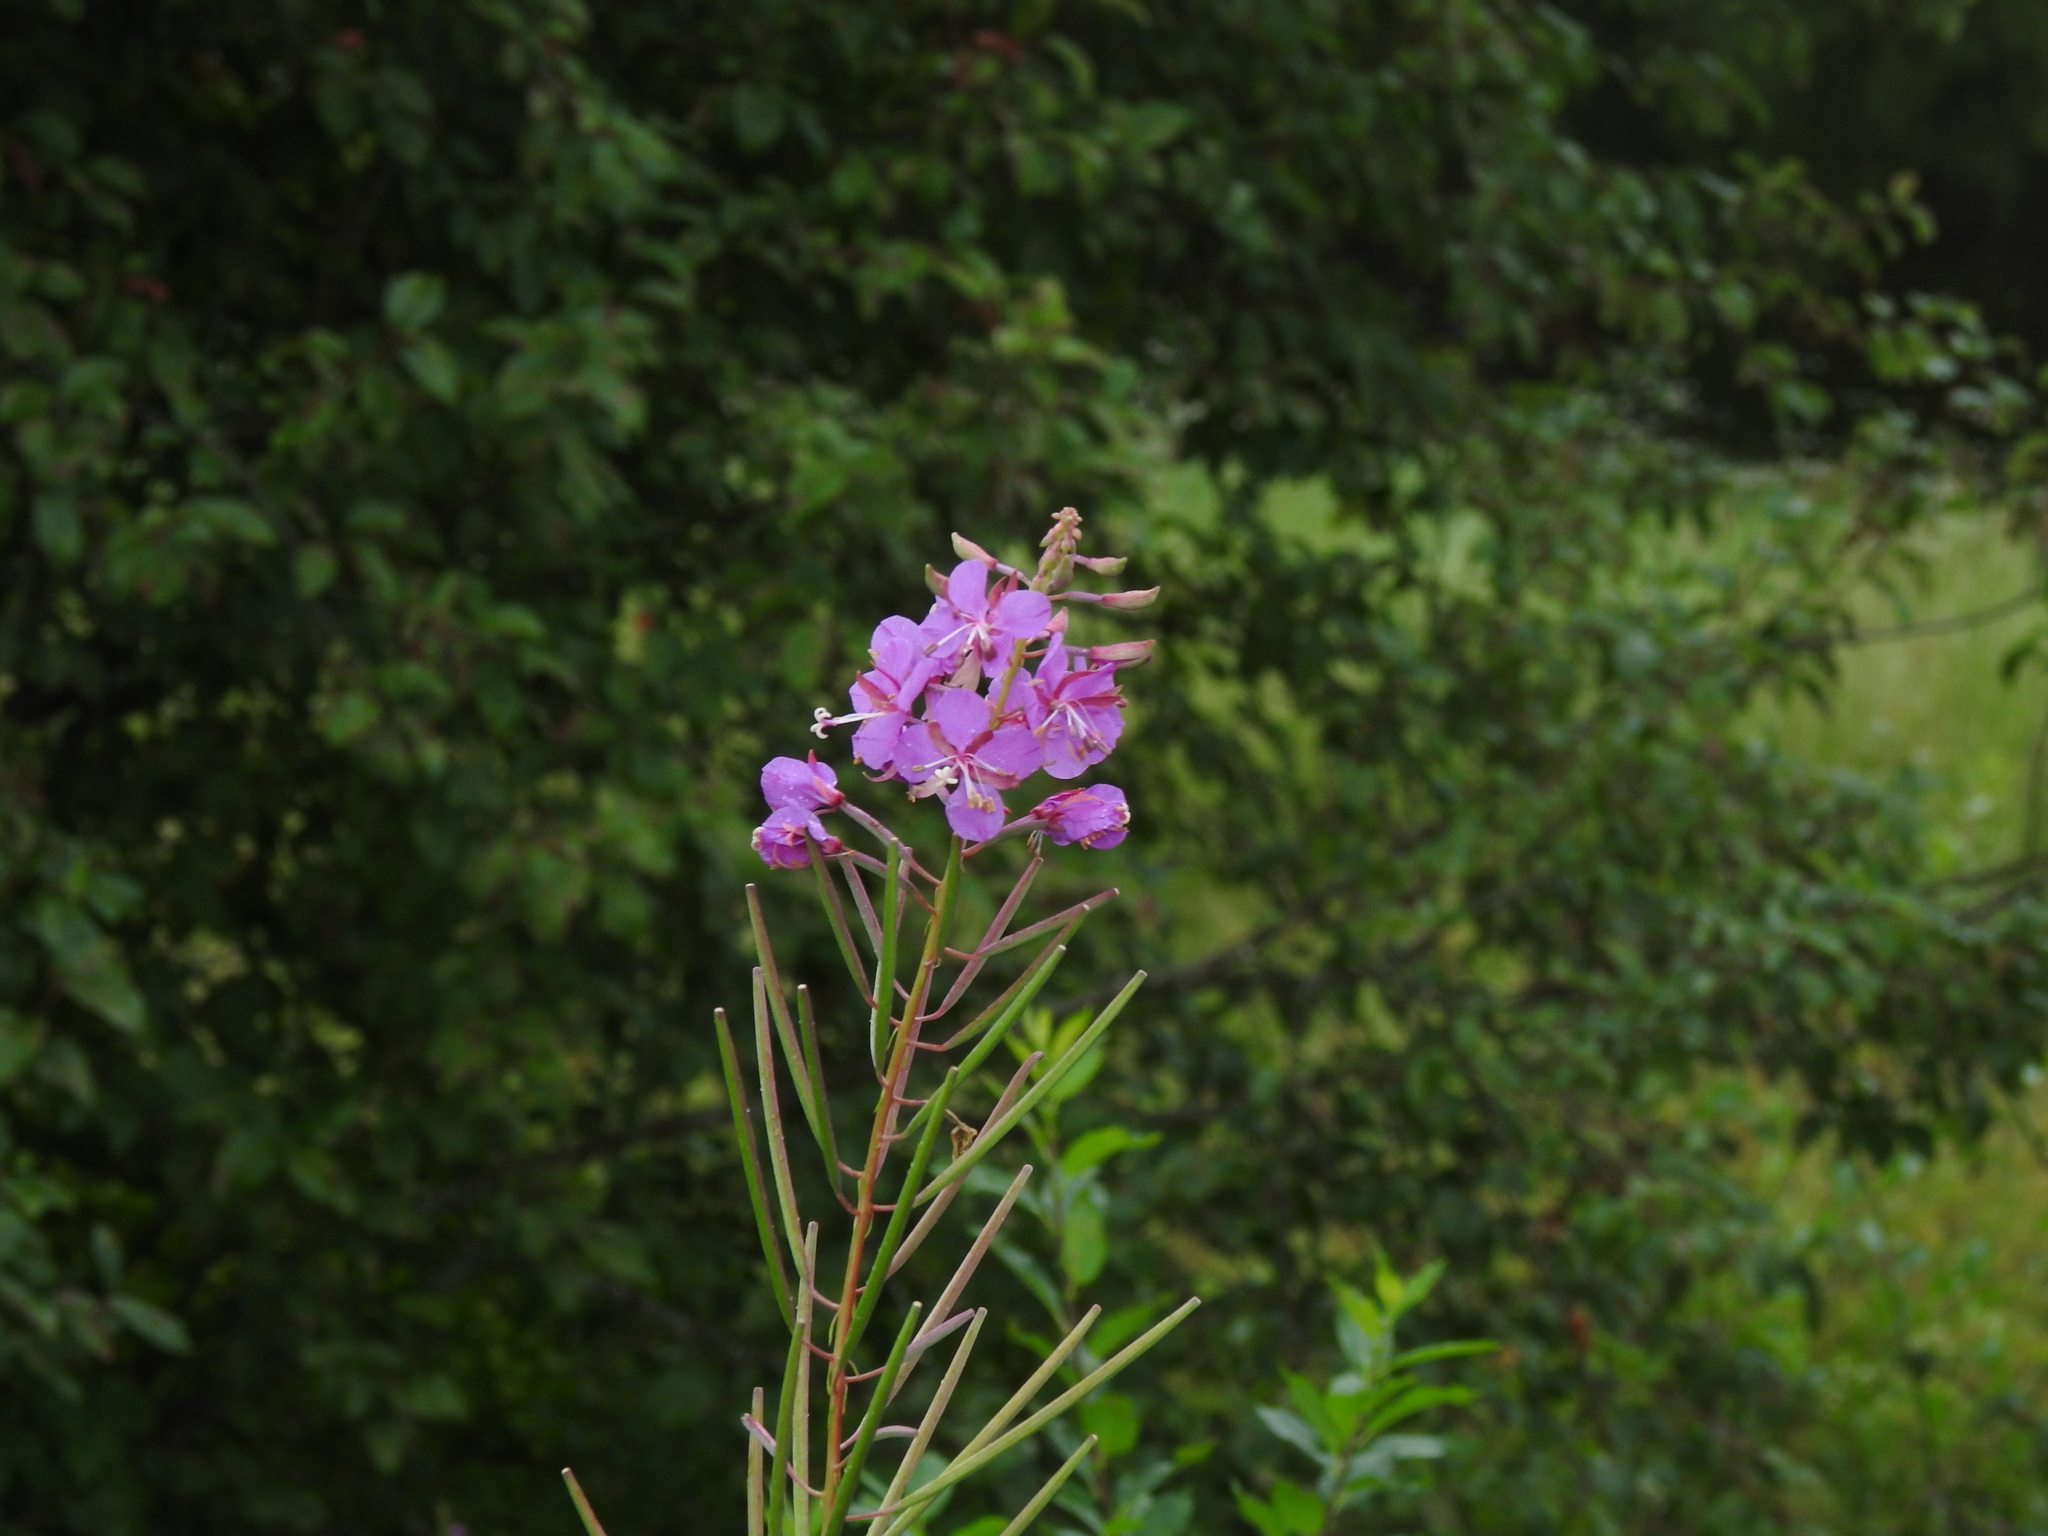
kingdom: Plantae
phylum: Tracheophyta
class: Magnoliopsida
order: Myrtales
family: Onagraceae
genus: Chamaenerion
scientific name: Chamaenerion angustifolium
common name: Fireweed
